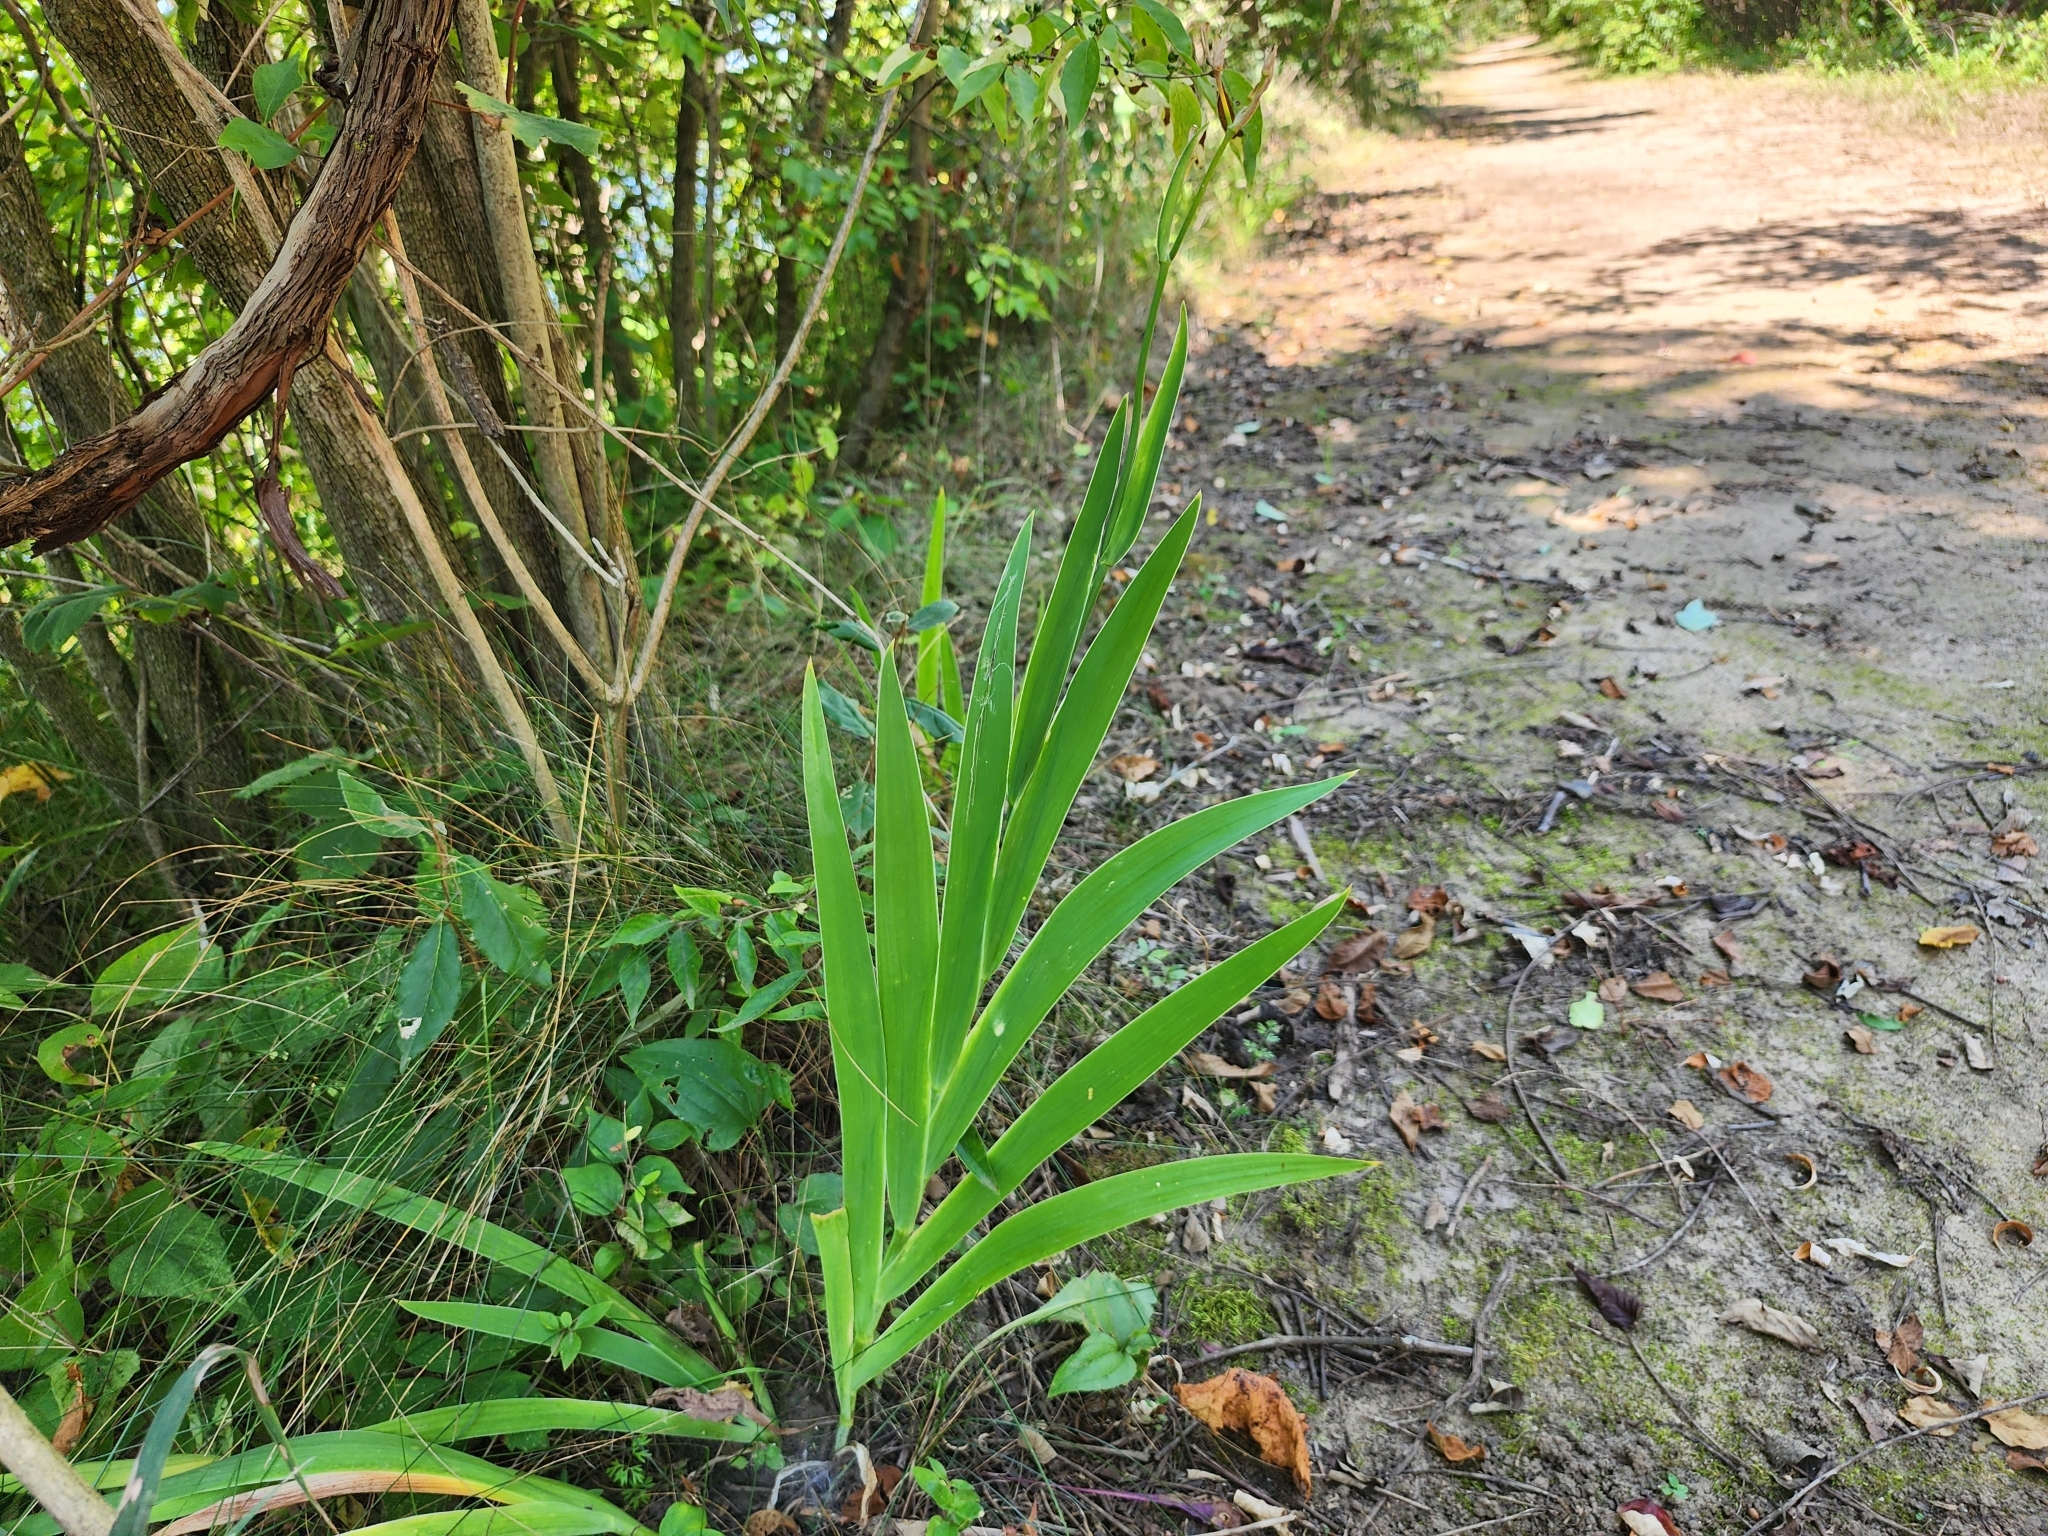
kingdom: Plantae
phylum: Tracheophyta
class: Liliopsida
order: Asparagales
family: Iridaceae
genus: Iris
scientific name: Iris domestica
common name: Belamcanda
